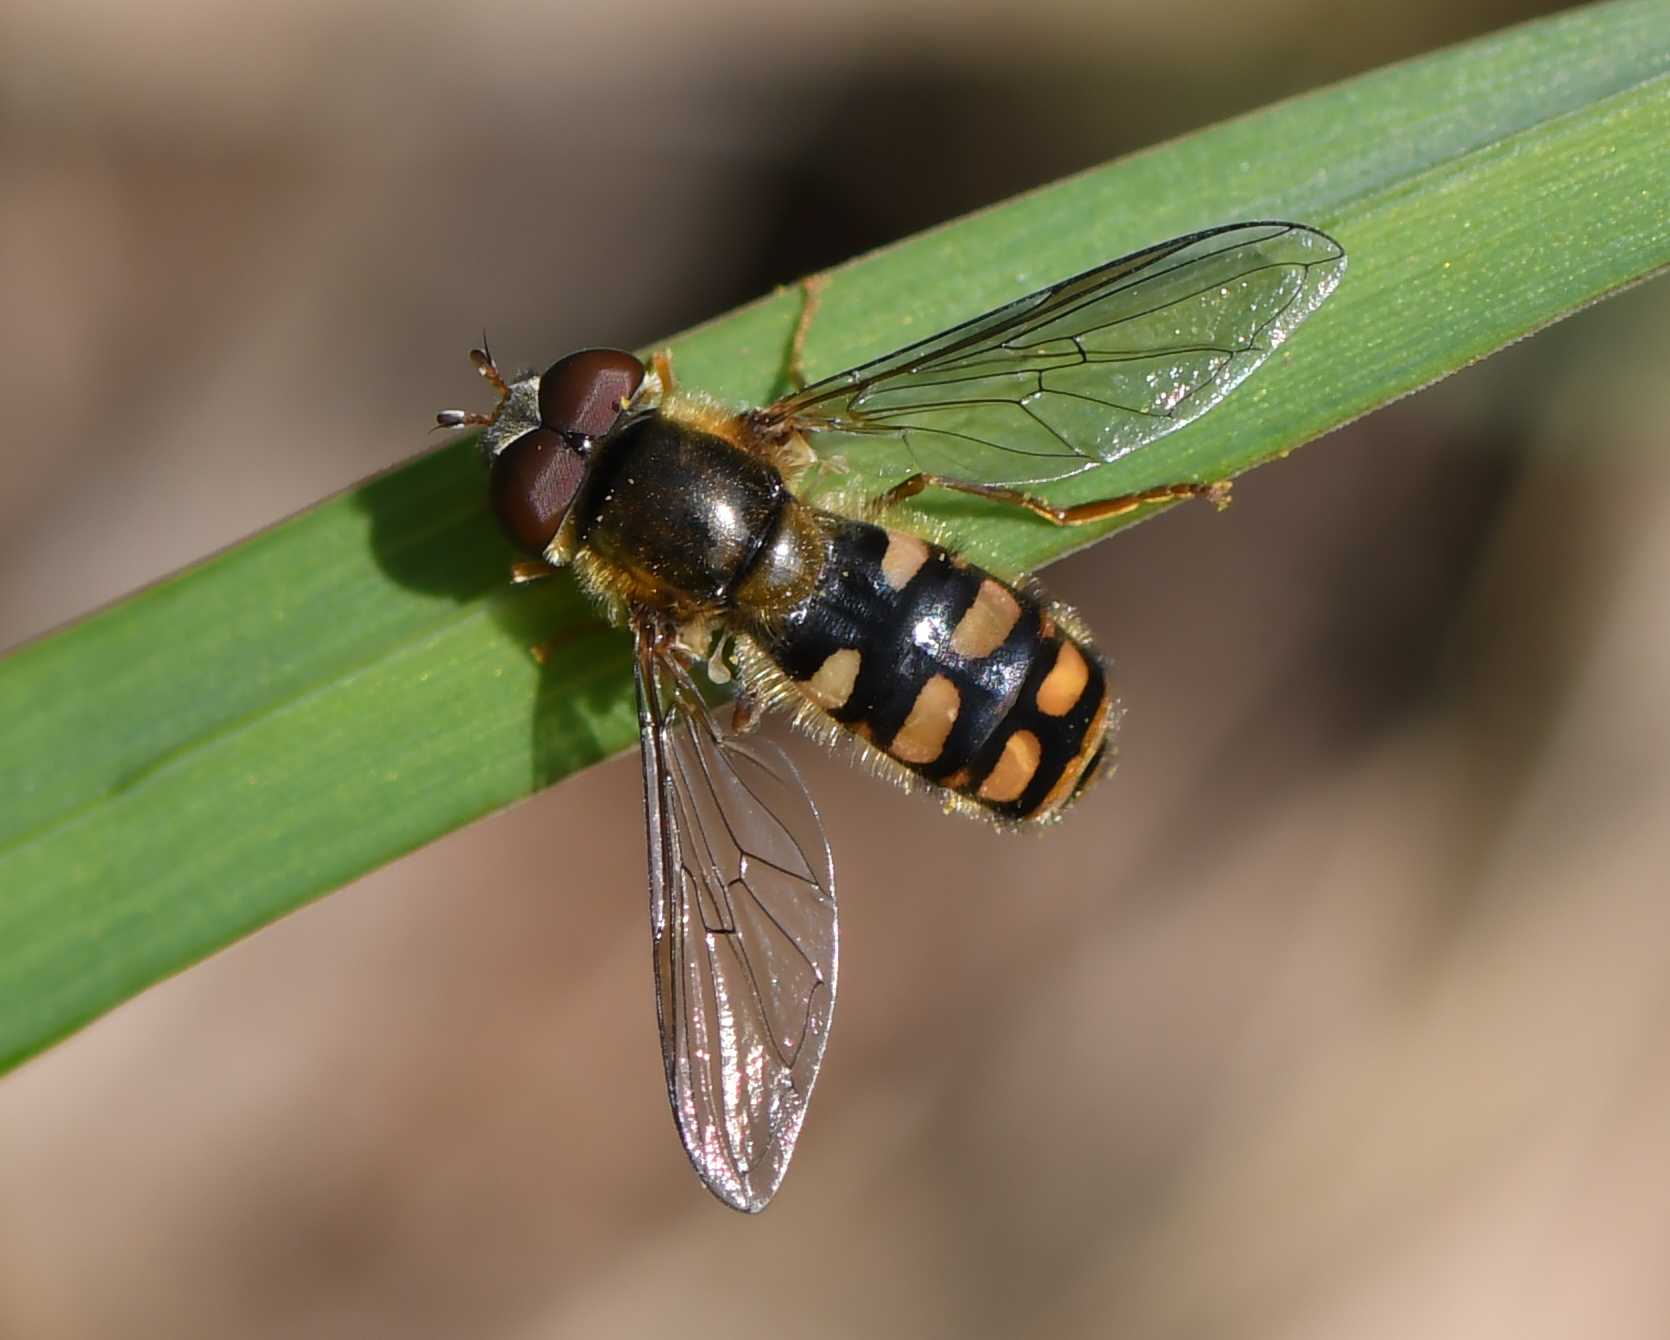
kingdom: Animalia
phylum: Arthropoda
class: Insecta
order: Diptera
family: Syrphidae
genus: Epistrophella
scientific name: Epistrophella euchromus
